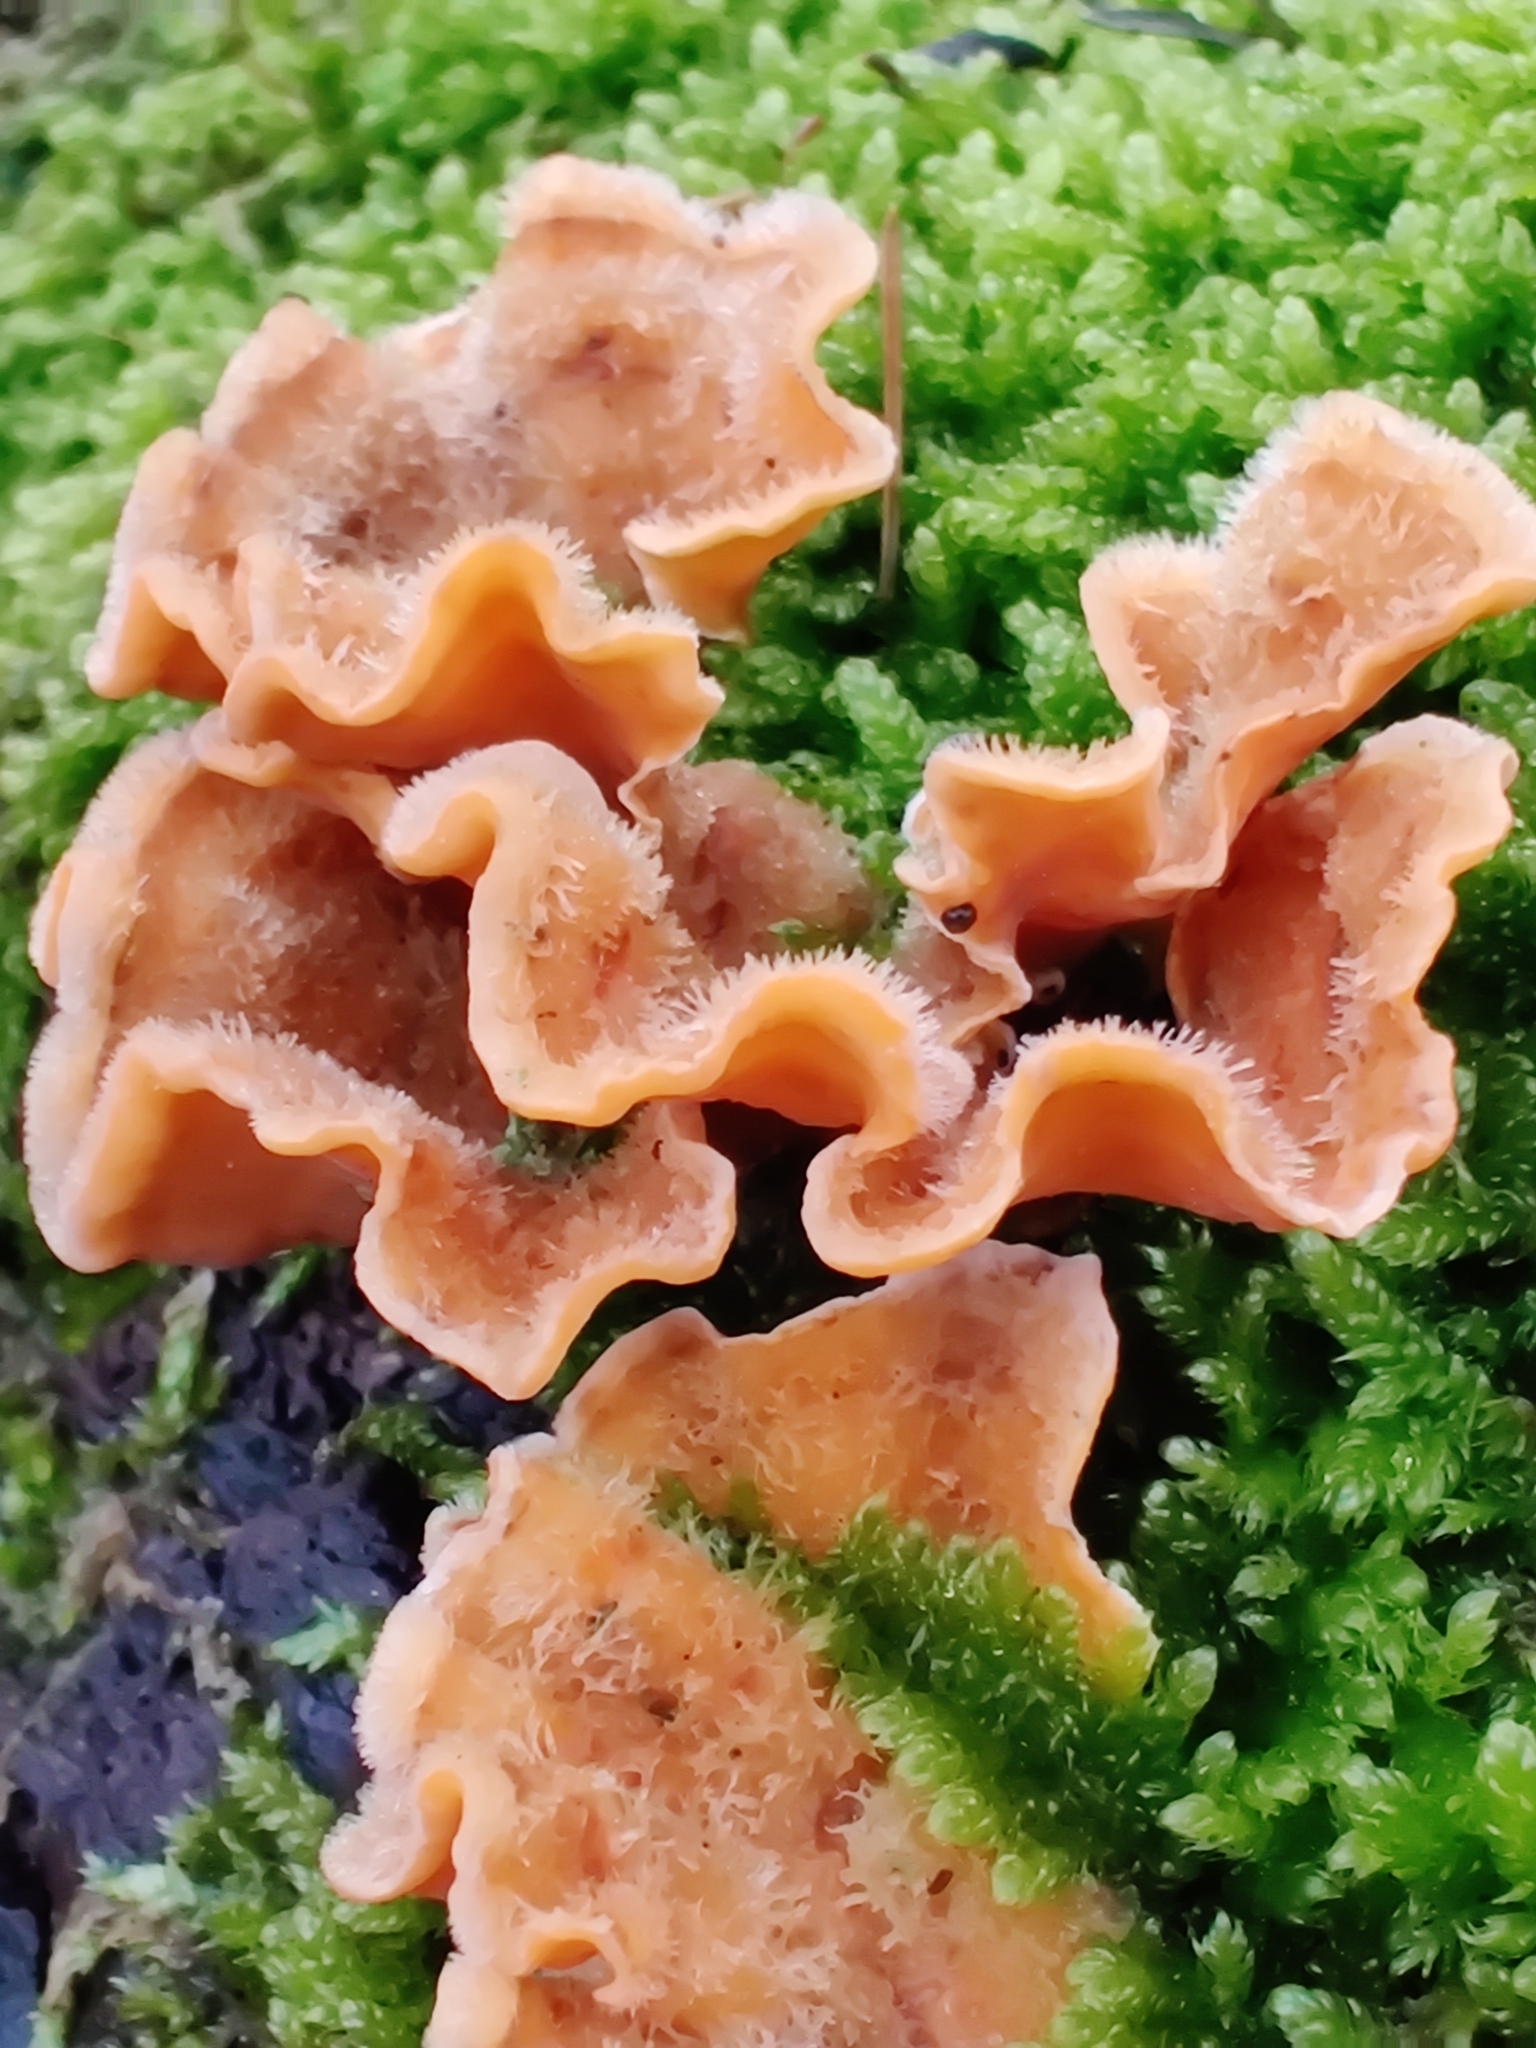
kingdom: Fungi
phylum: Basidiomycota
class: Agaricomycetes
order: Russulales
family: Stereaceae
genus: Stereum
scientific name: Stereum hirsutum
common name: Hairy curtain crust
